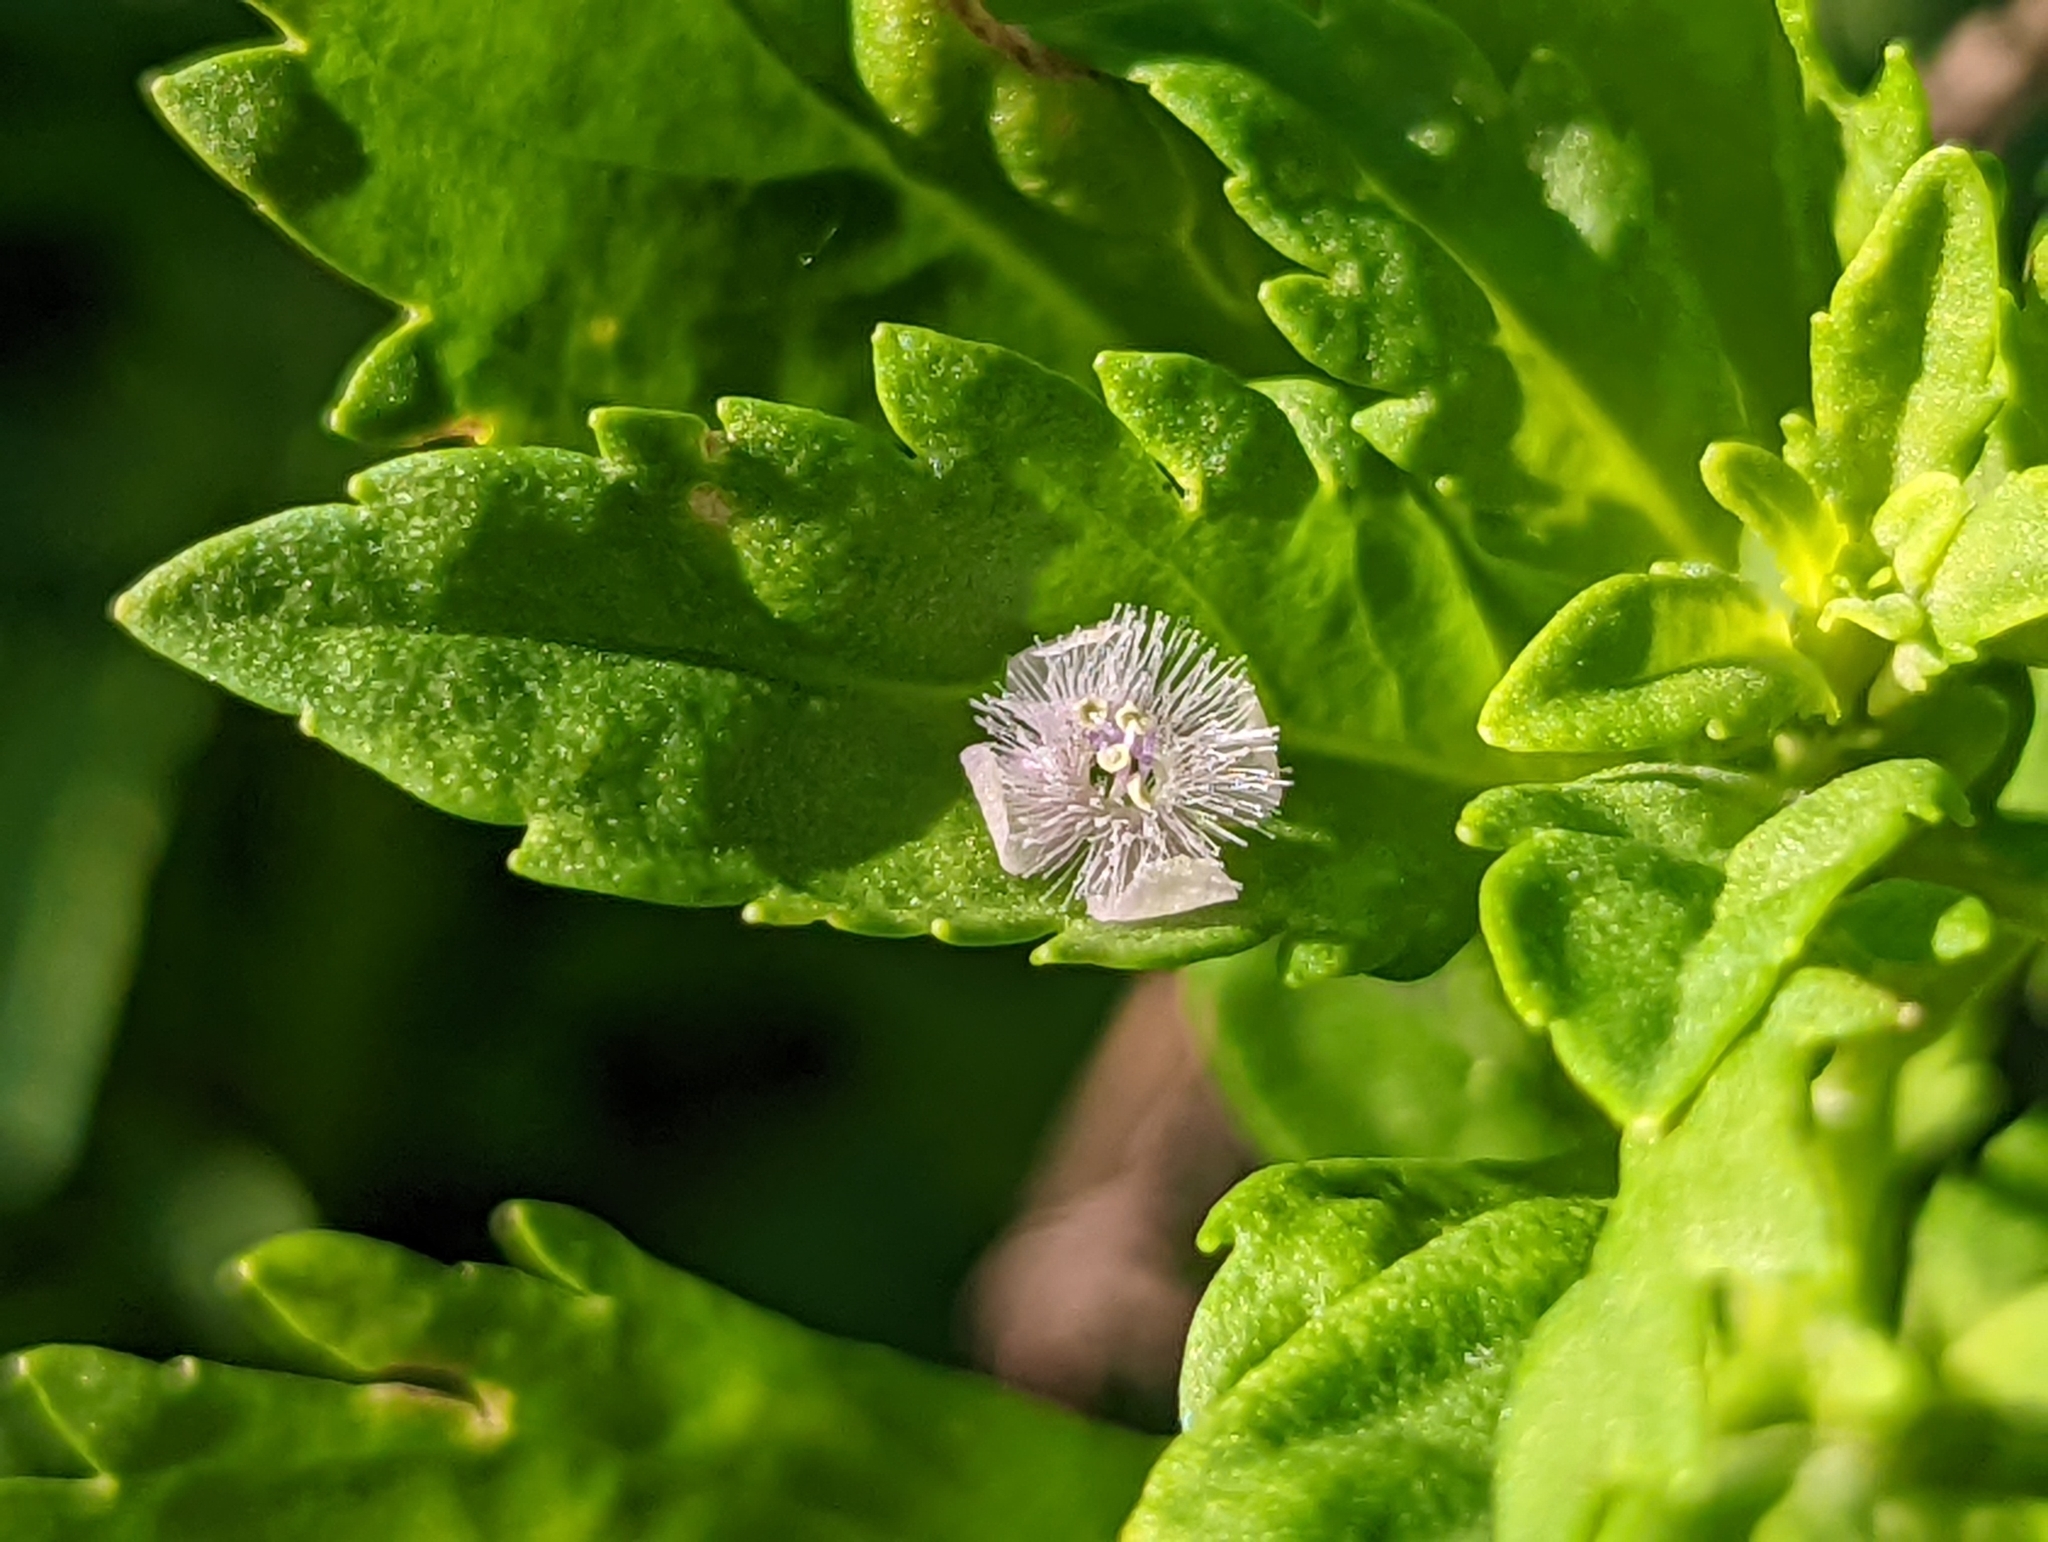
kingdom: Plantae
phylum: Tracheophyta
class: Magnoliopsida
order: Lamiales
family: Plantaginaceae
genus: Scoparia
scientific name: Scoparia dulcis
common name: Scoparia-weed
